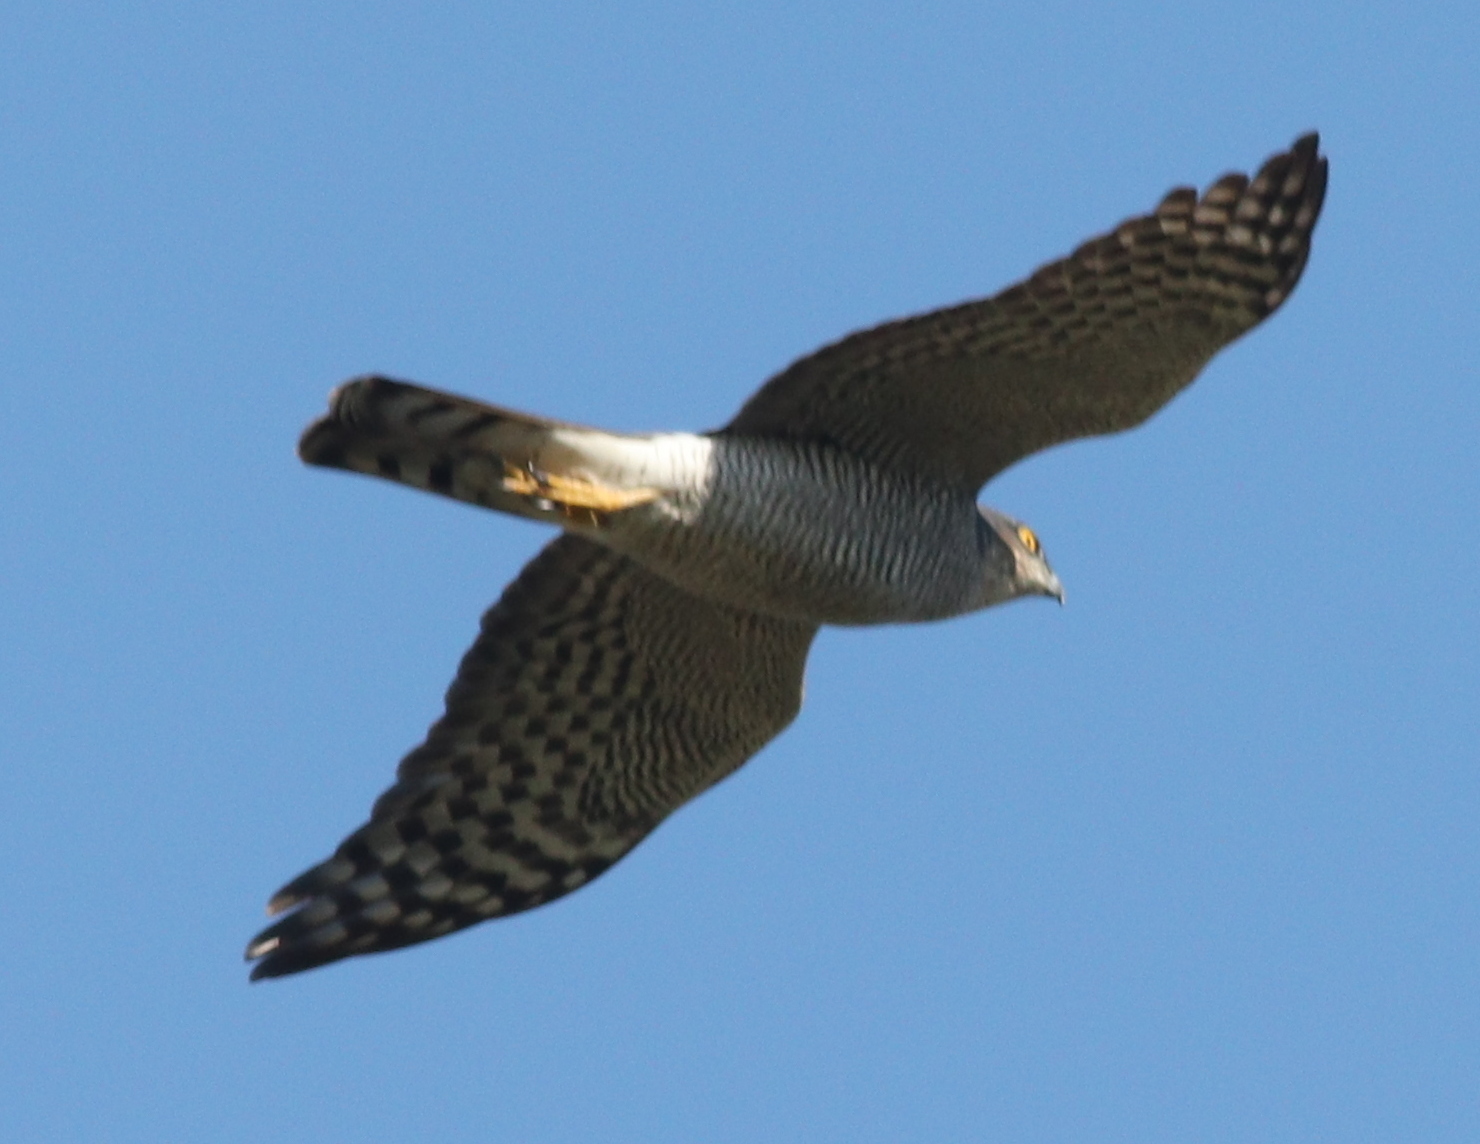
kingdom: Animalia
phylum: Chordata
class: Aves
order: Accipitriformes
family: Accipitridae
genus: Accipiter
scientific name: Accipiter nisus
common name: Eurasian sparrowhawk
